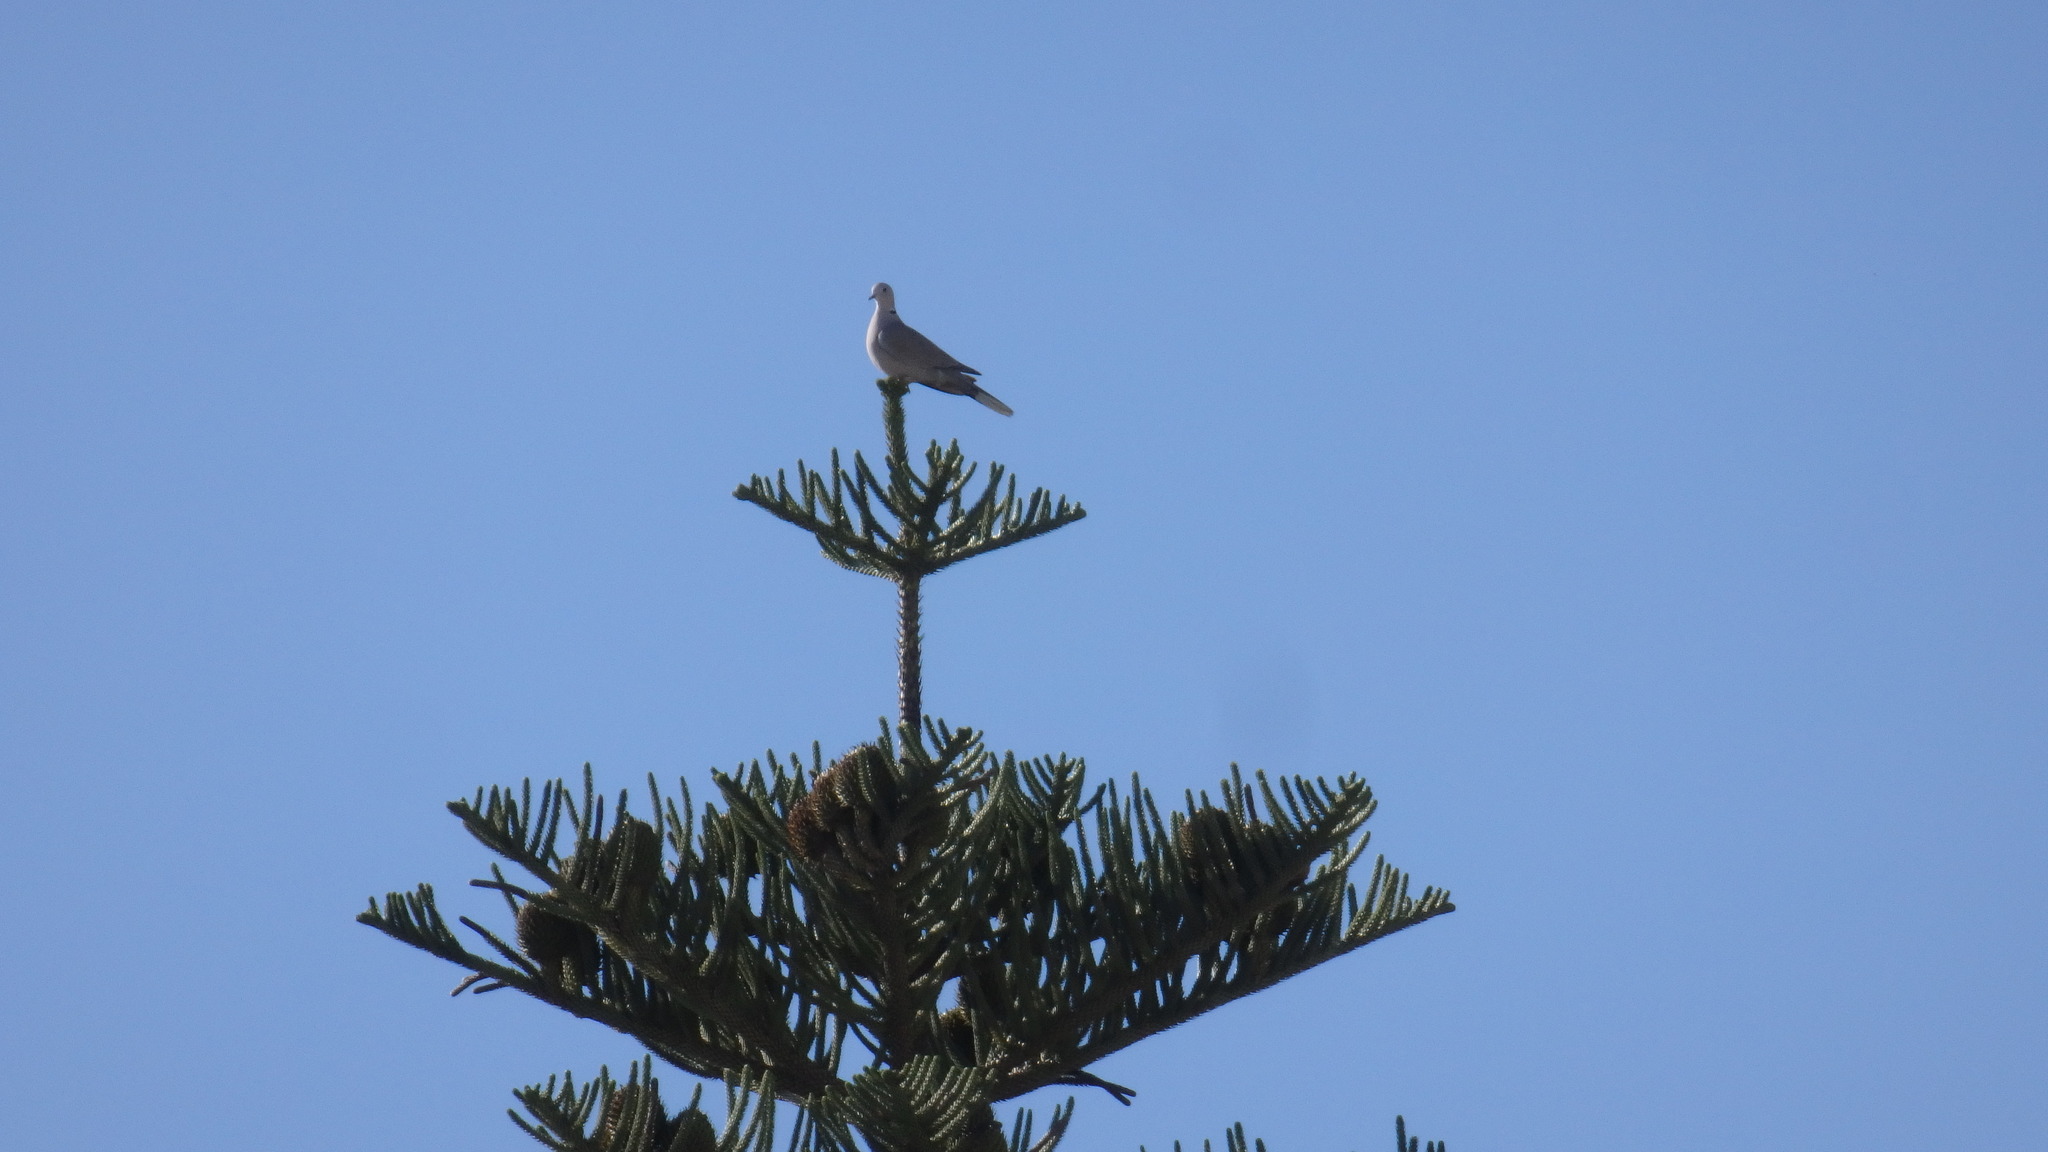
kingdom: Animalia
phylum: Chordata
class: Aves
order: Columbiformes
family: Columbidae
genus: Streptopelia
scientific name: Streptopelia decaocto
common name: Eurasian collared dove
